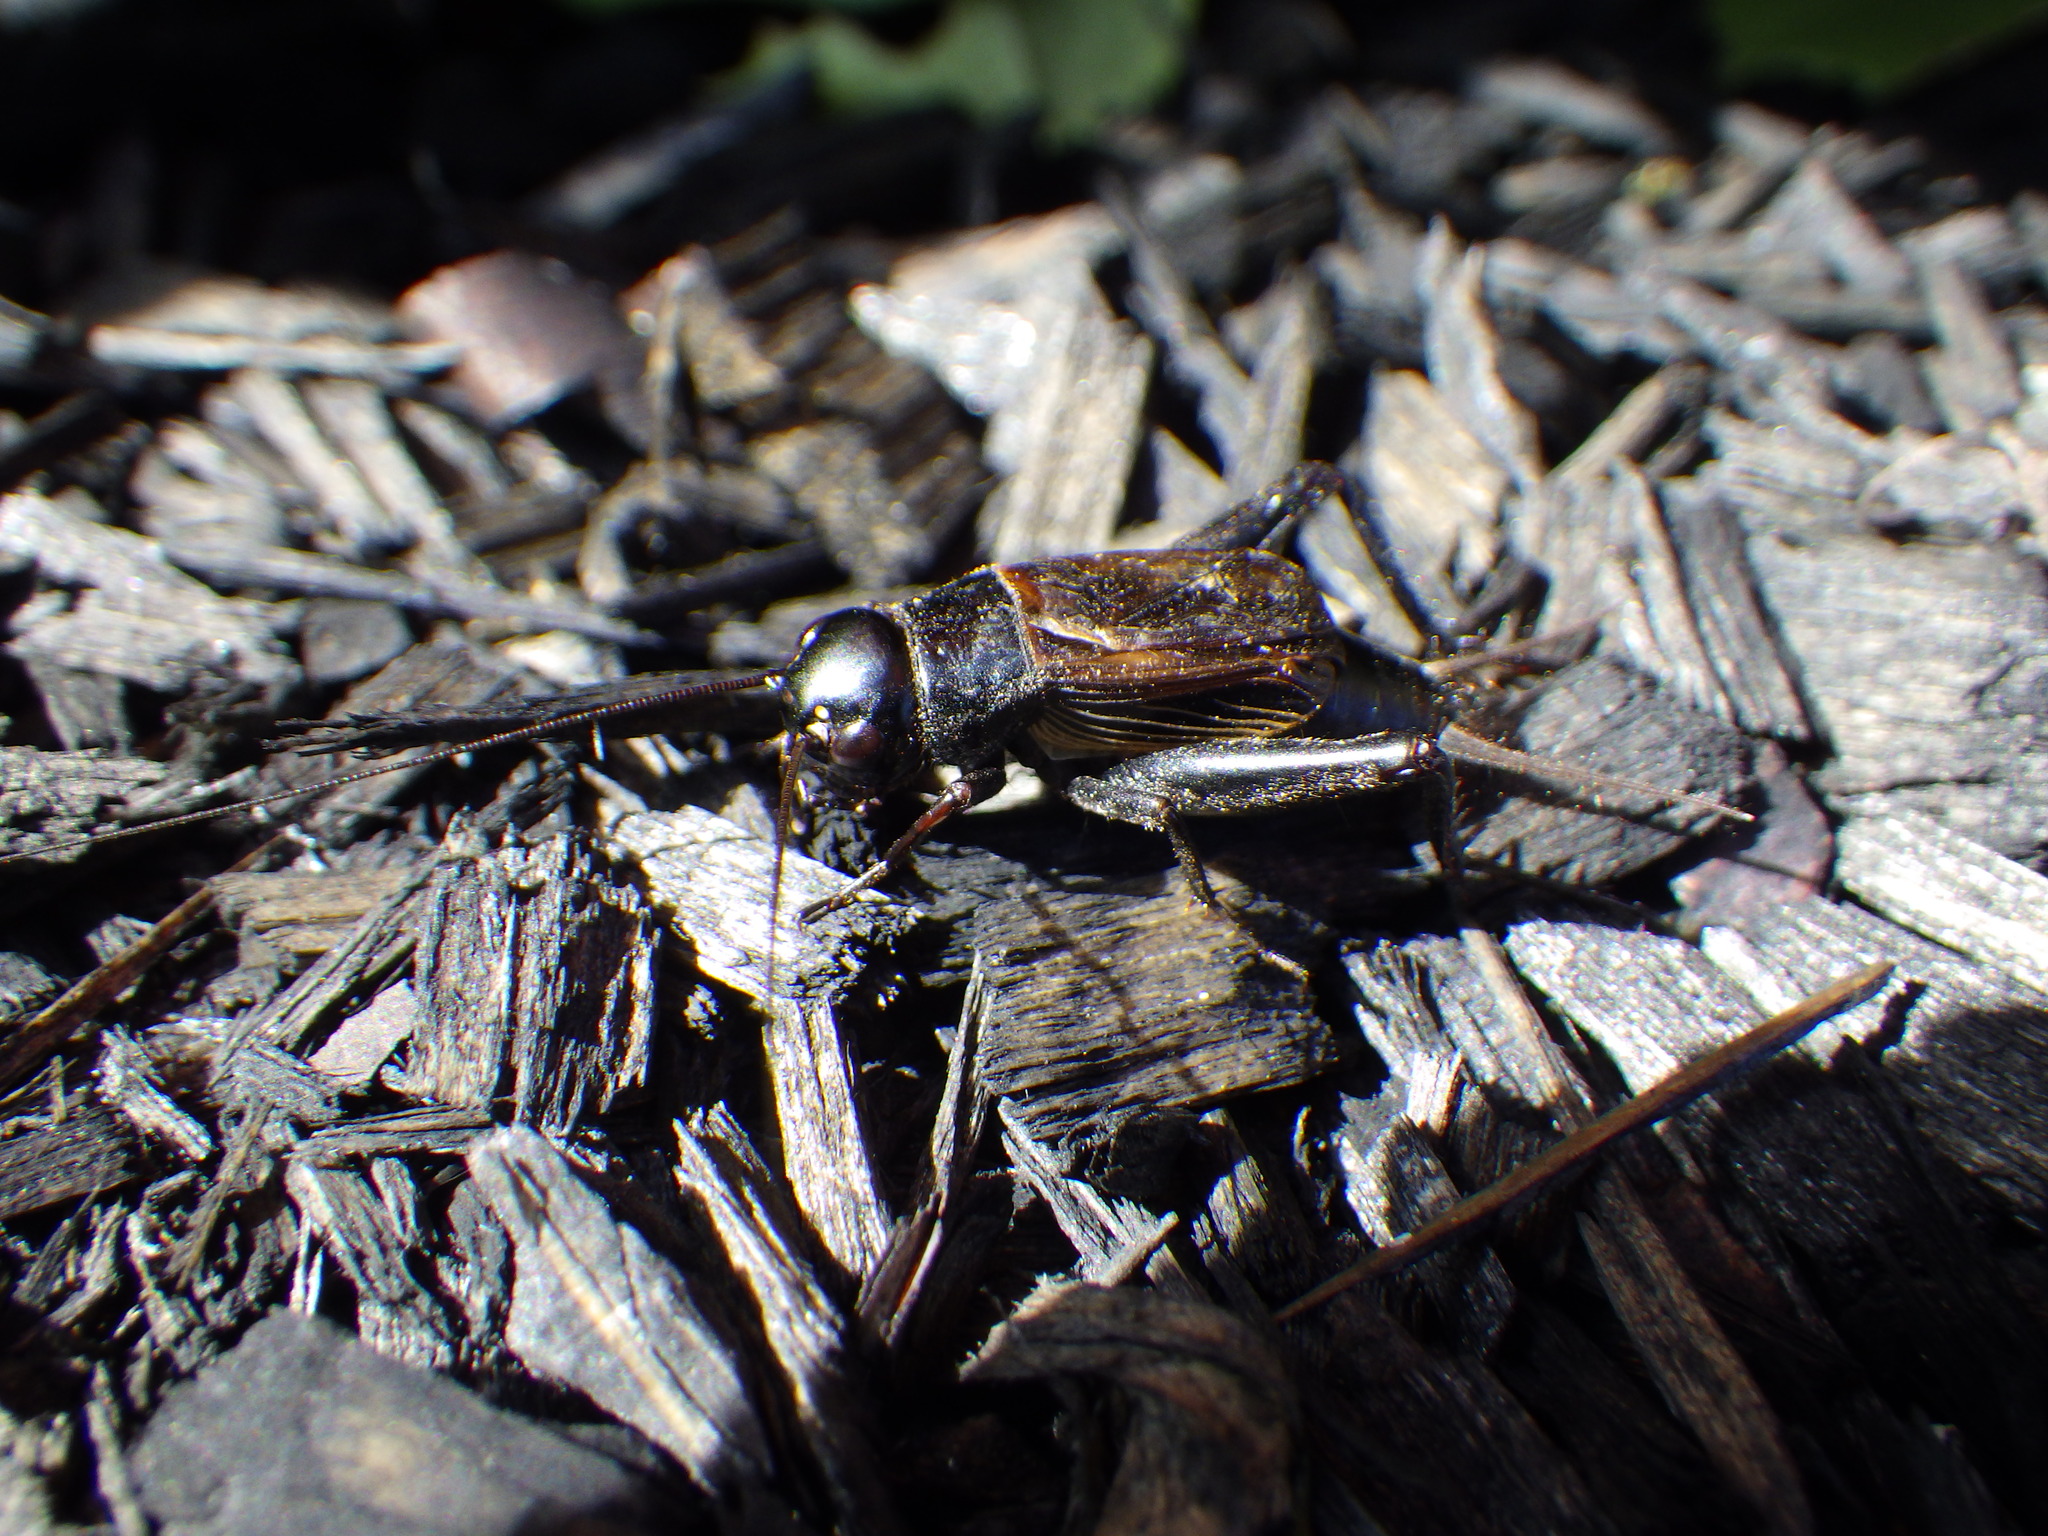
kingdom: Animalia
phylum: Arthropoda
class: Insecta
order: Orthoptera
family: Gryllidae
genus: Gryllus
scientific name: Gryllus pennsylvanicus
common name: Fall field cricket
